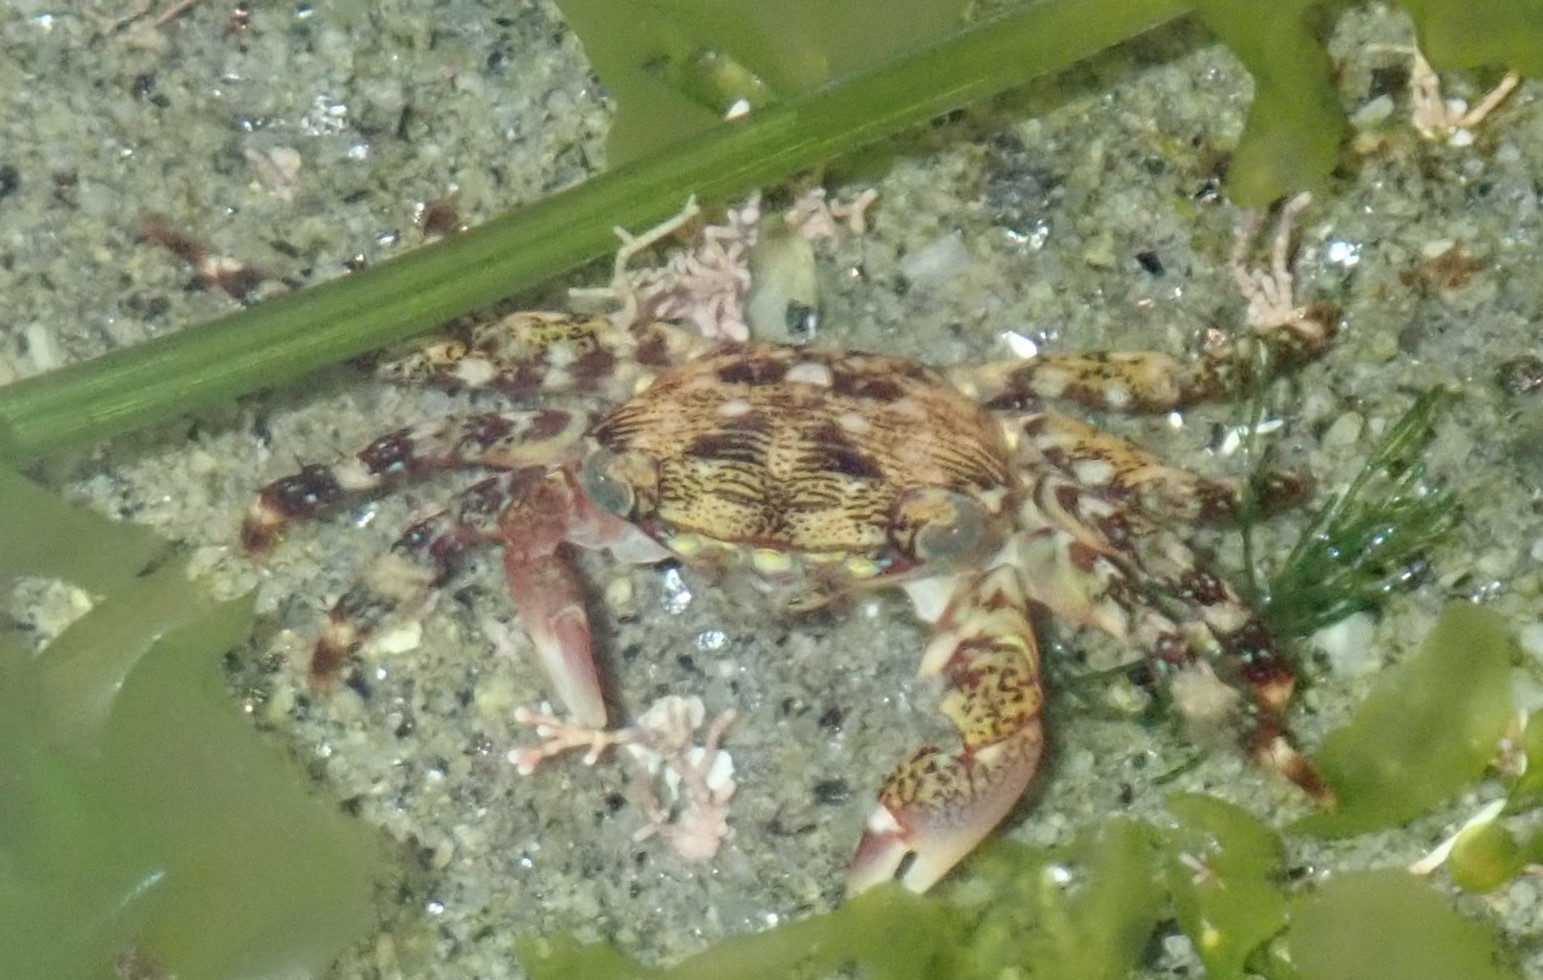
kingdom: Animalia
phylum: Arthropoda
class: Malacostraca
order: Decapoda
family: Grapsidae
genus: Pachygrapsus
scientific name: Pachygrapsus crassipes
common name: Striped shore crab
